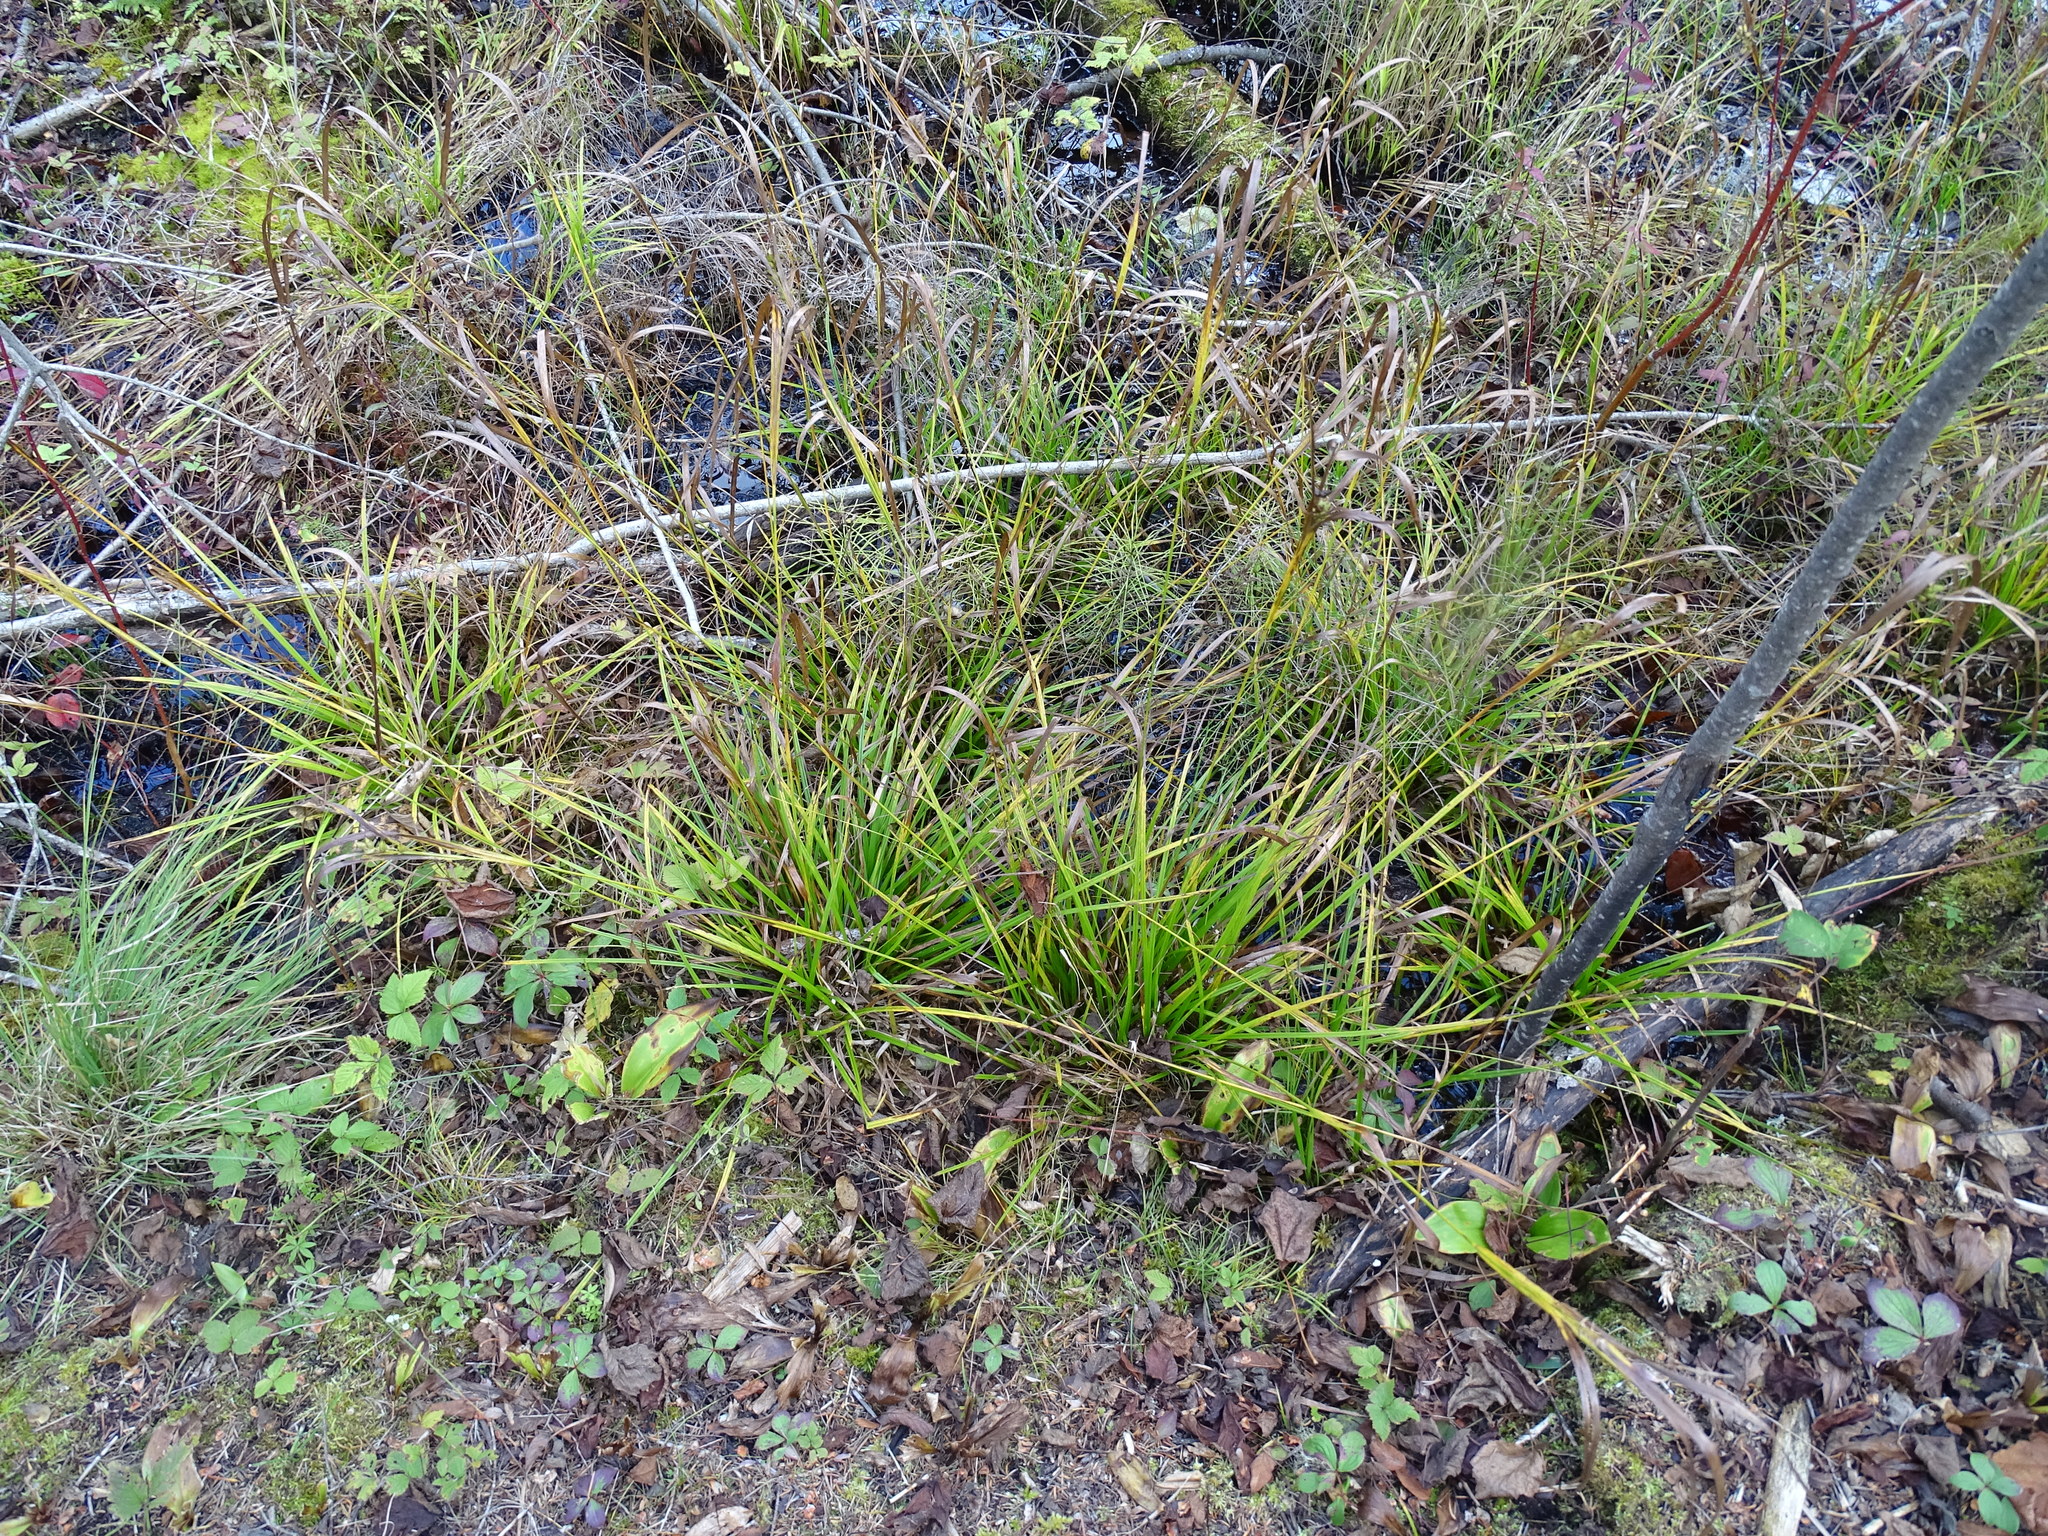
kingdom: Plantae
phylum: Tracheophyta
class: Liliopsida
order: Poales
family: Cyperaceae
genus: Carex
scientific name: Carex intumescens
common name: Greater bladder sedge
